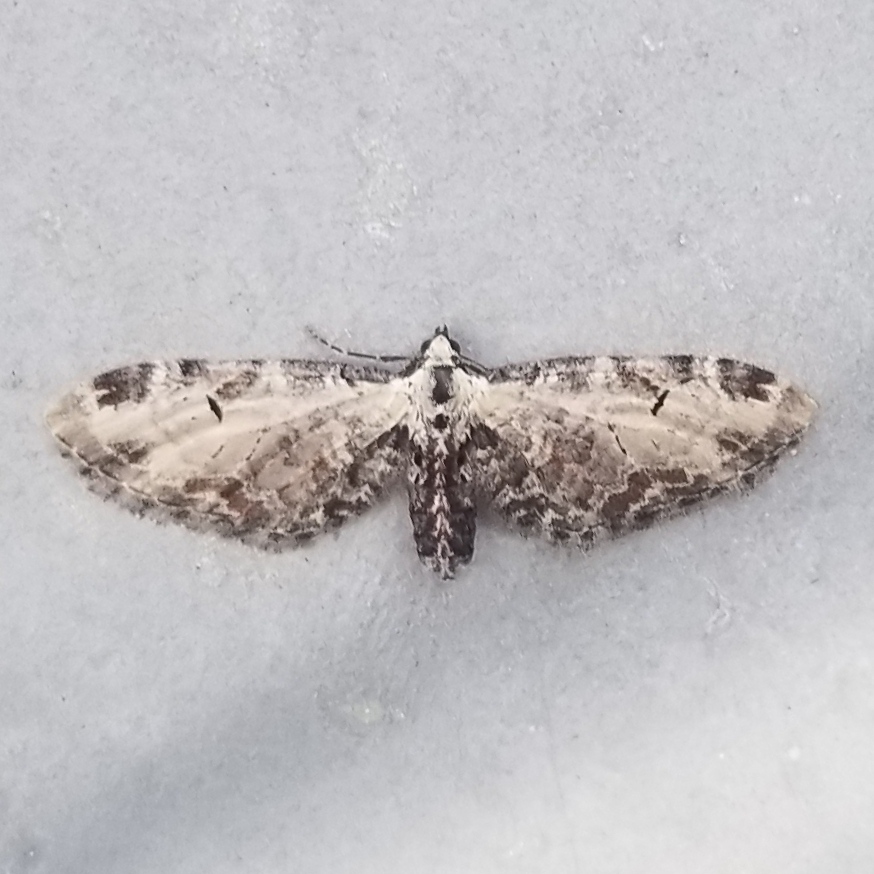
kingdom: Animalia
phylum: Arthropoda
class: Insecta
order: Lepidoptera
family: Geometridae
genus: Eupithecia
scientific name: Eupithecia ravocostaliata
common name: Great varigated pug
